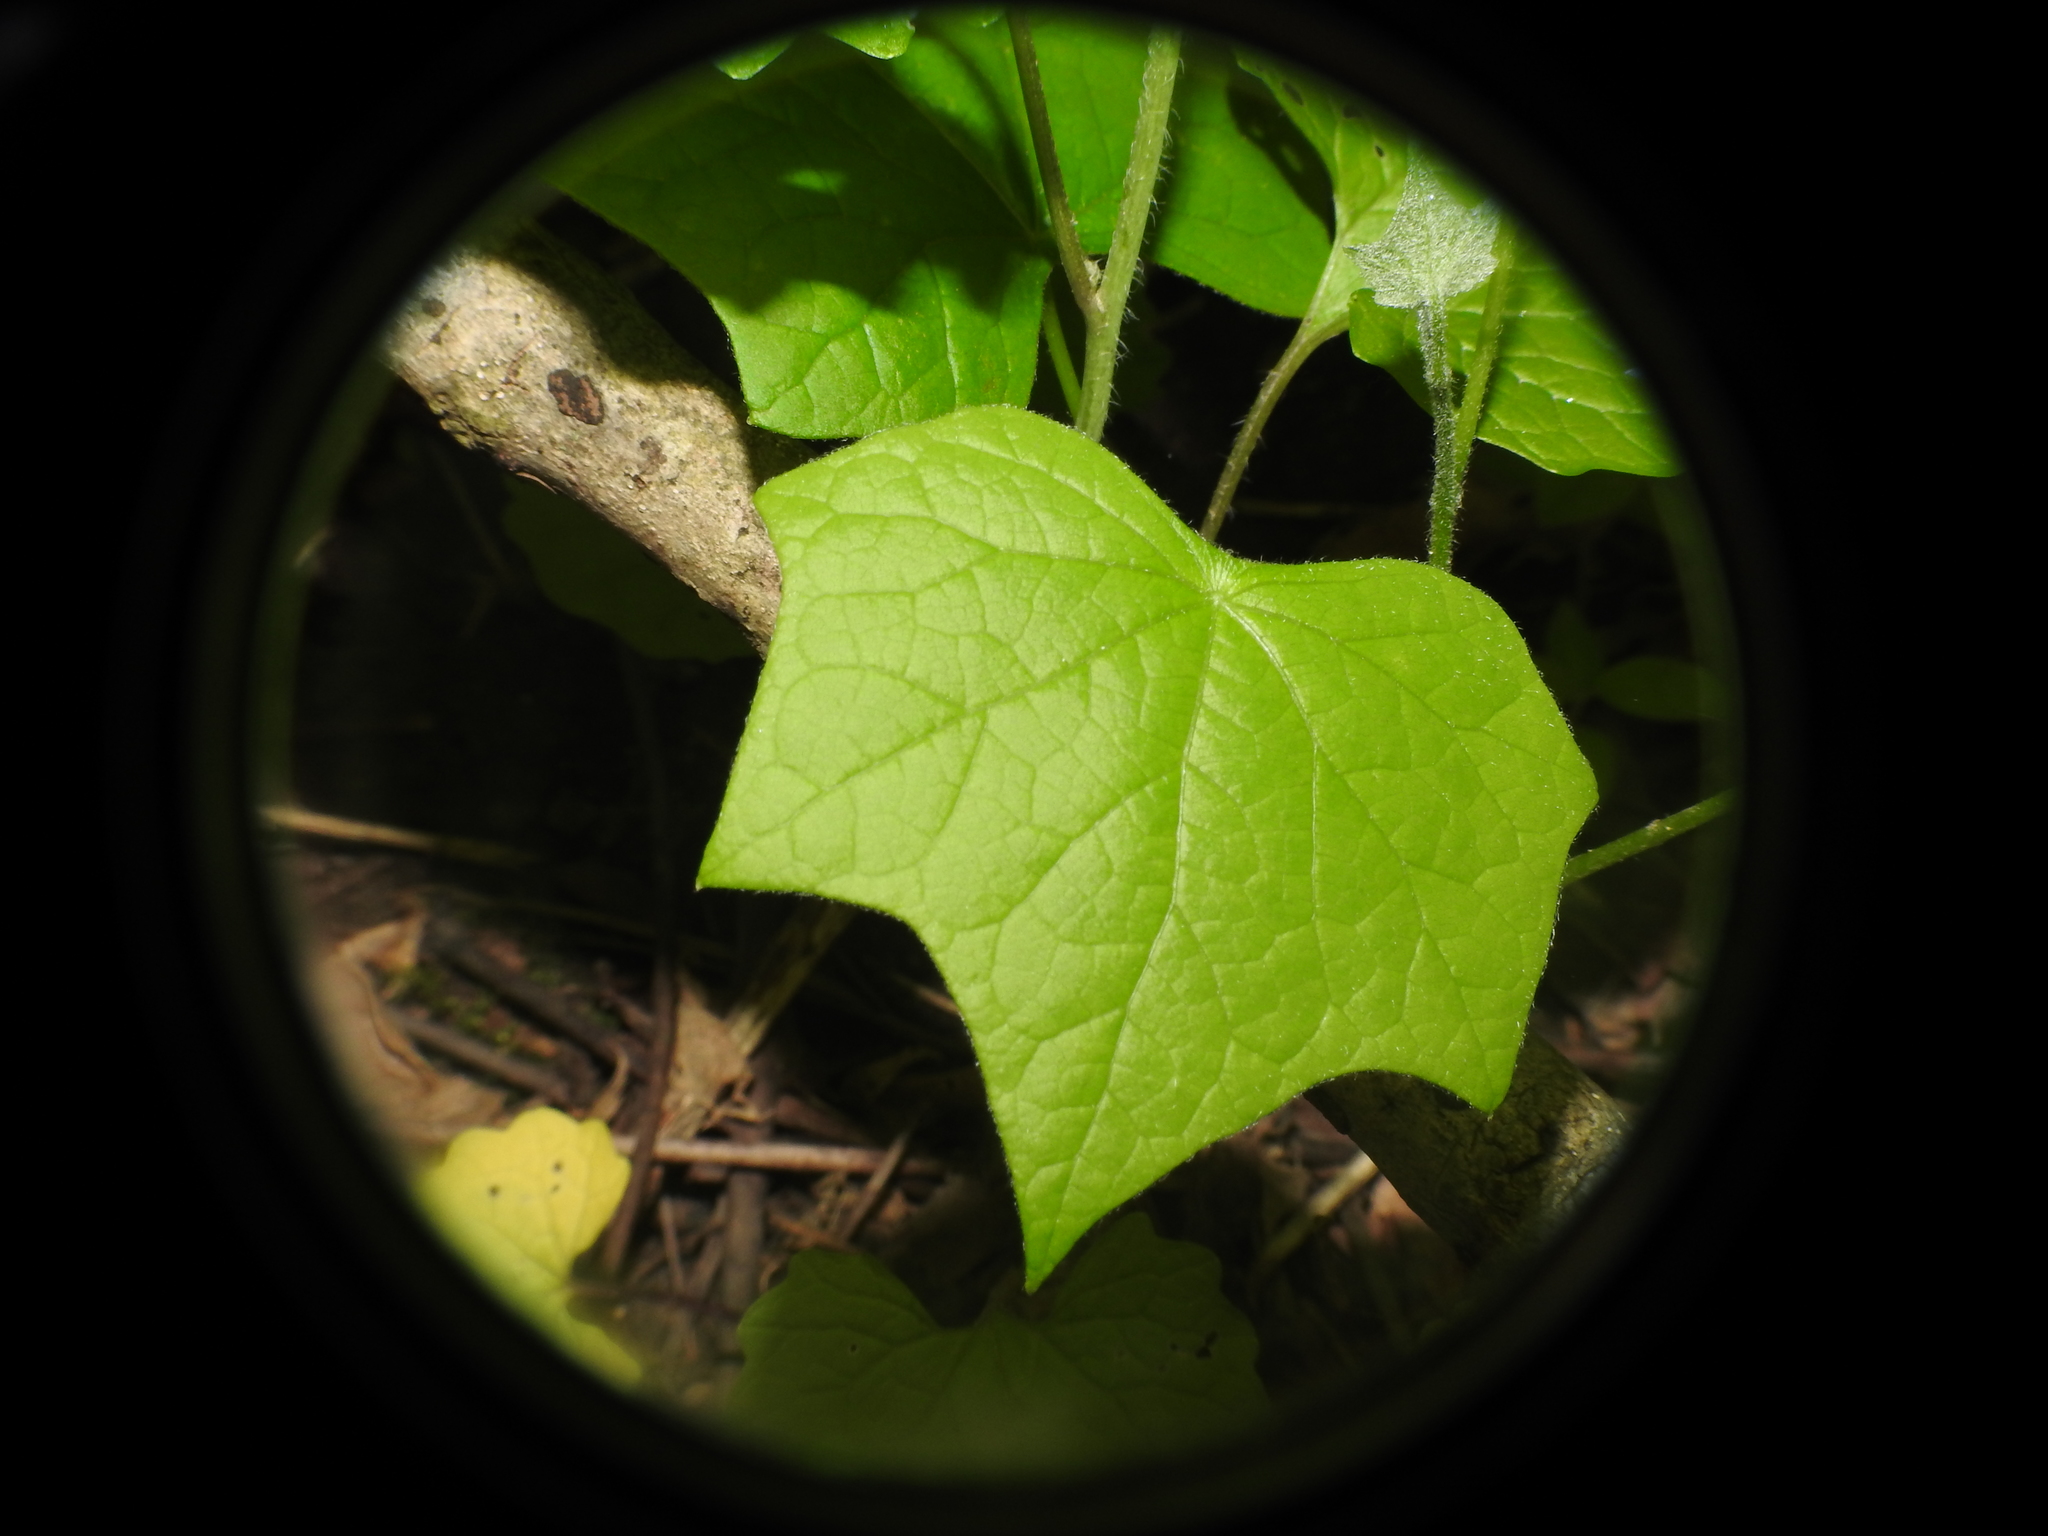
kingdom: Plantae
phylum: Tracheophyta
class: Magnoliopsida
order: Ranunculales
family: Menispermaceae
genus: Menispermum
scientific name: Menispermum canadense
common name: Moonseed
